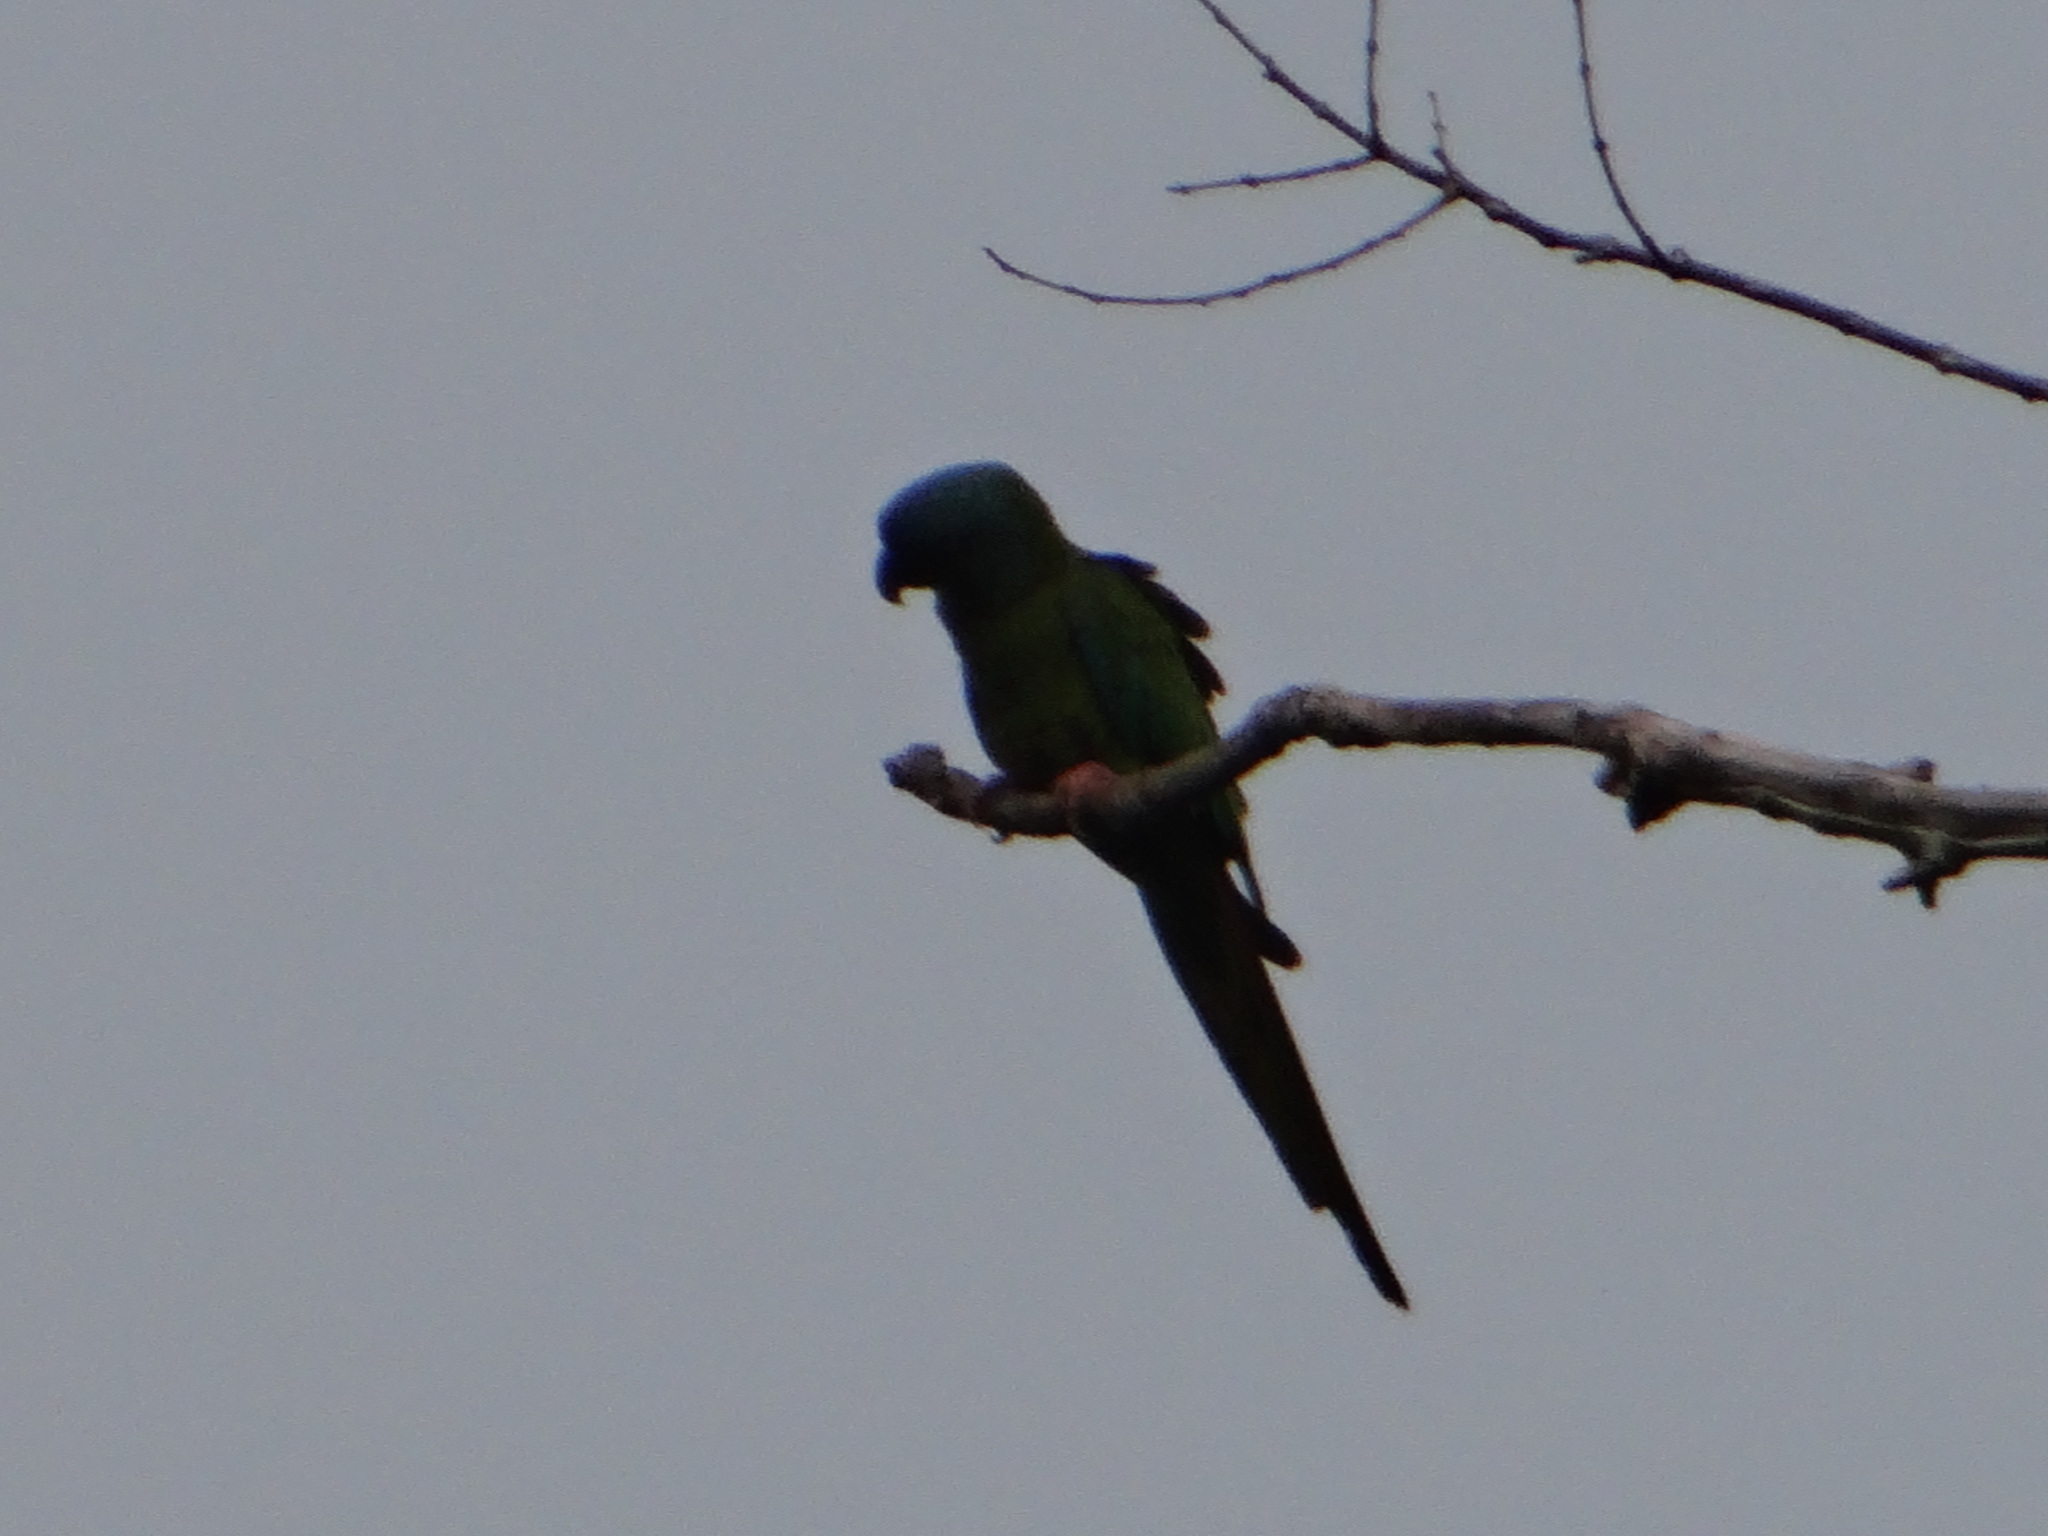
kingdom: Animalia
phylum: Chordata
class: Aves
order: Psittaciformes
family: Psittacidae
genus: Primolius
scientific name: Primolius couloni
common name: Blue-headed macaw
